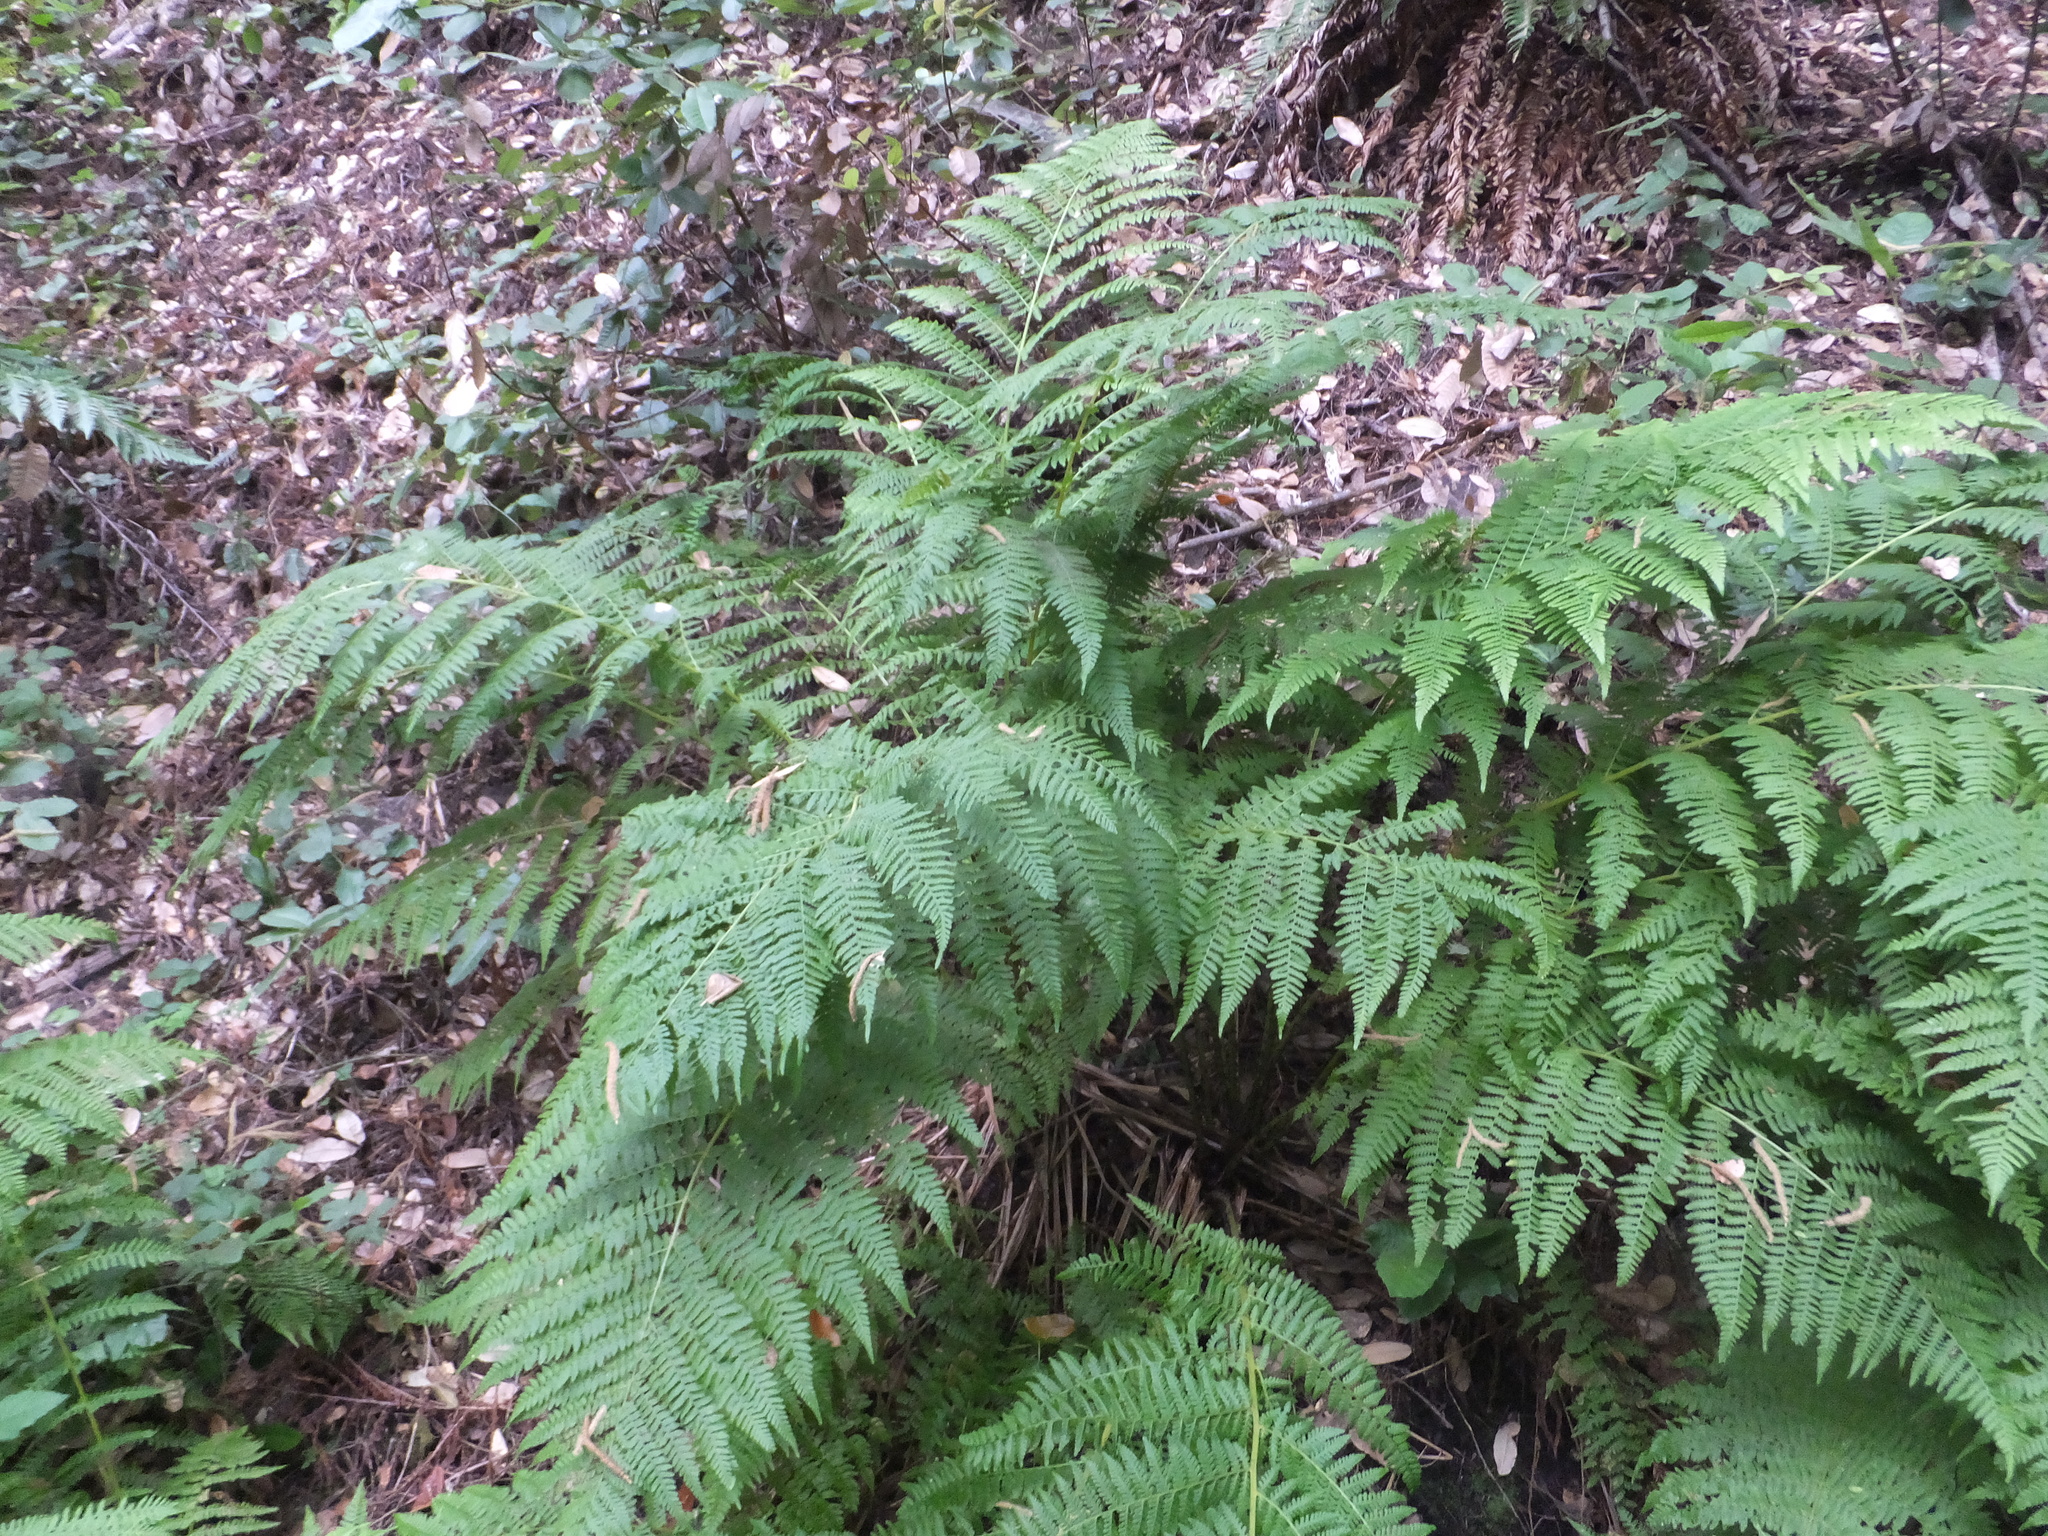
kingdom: Plantae
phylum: Tracheophyta
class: Polypodiopsida
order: Polypodiales
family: Athyriaceae
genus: Athyrium
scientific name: Athyrium cyclosorum
